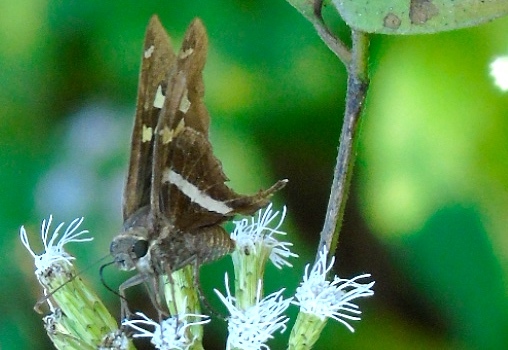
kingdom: Animalia
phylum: Arthropoda
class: Insecta
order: Lepidoptera
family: Hesperiidae
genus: Chioides
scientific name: Chioides catillus
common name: Silverbanded skipper
